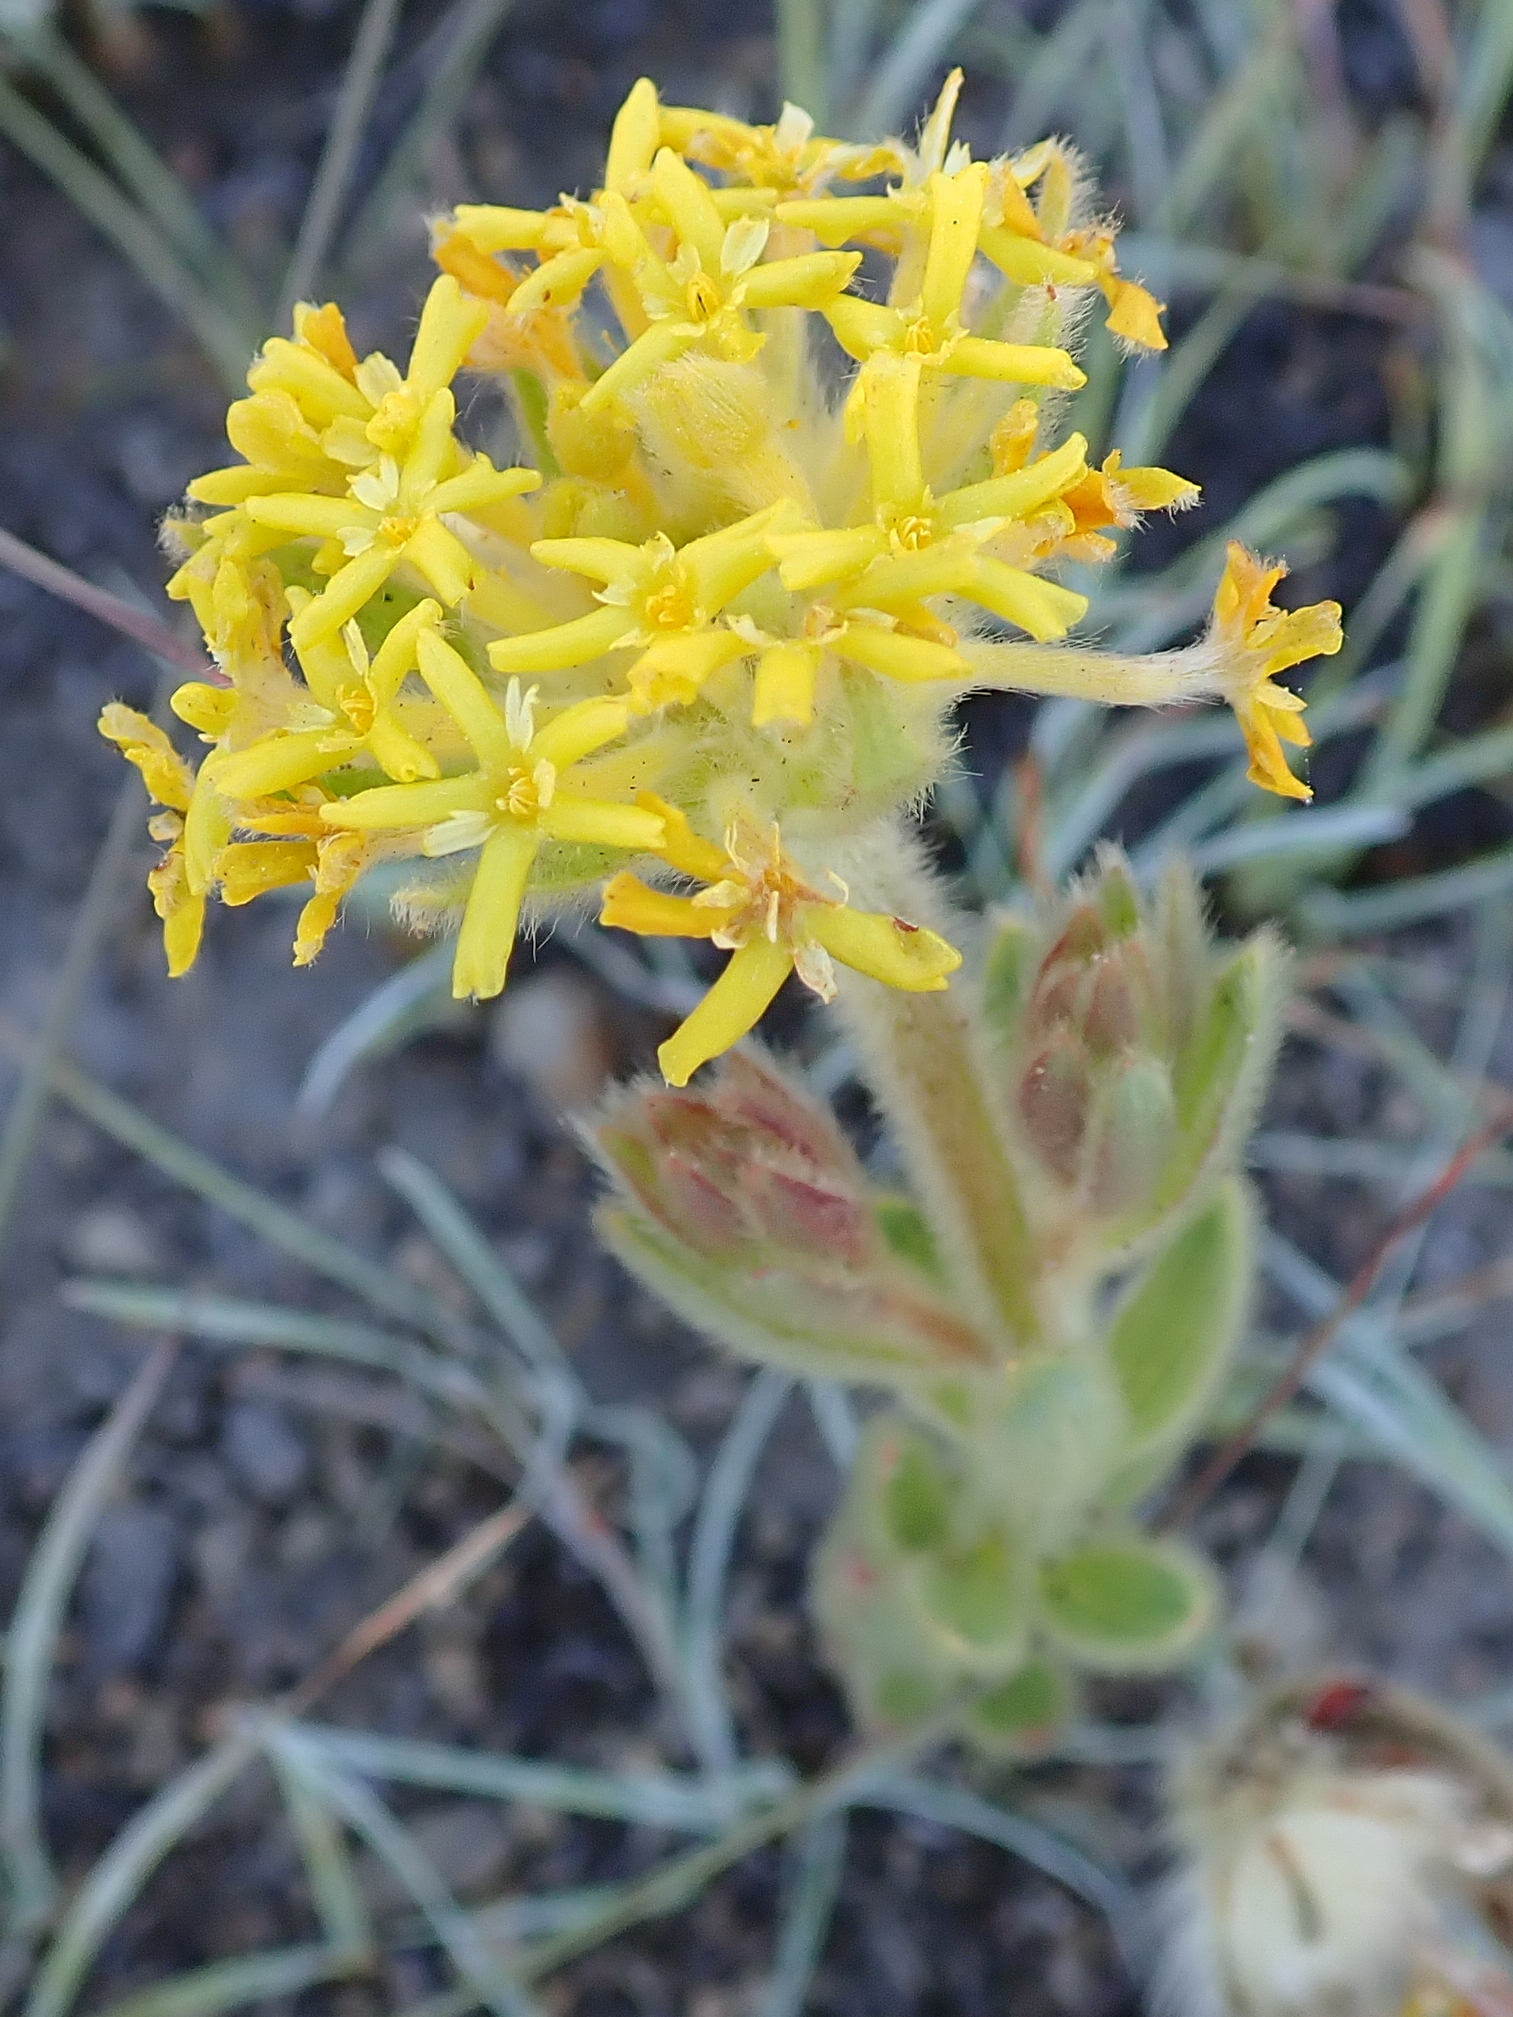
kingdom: Plantae
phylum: Tracheophyta
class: Magnoliopsida
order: Malvales
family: Thymelaeaceae
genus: Gnidia
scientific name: Gnidia kraussiana
